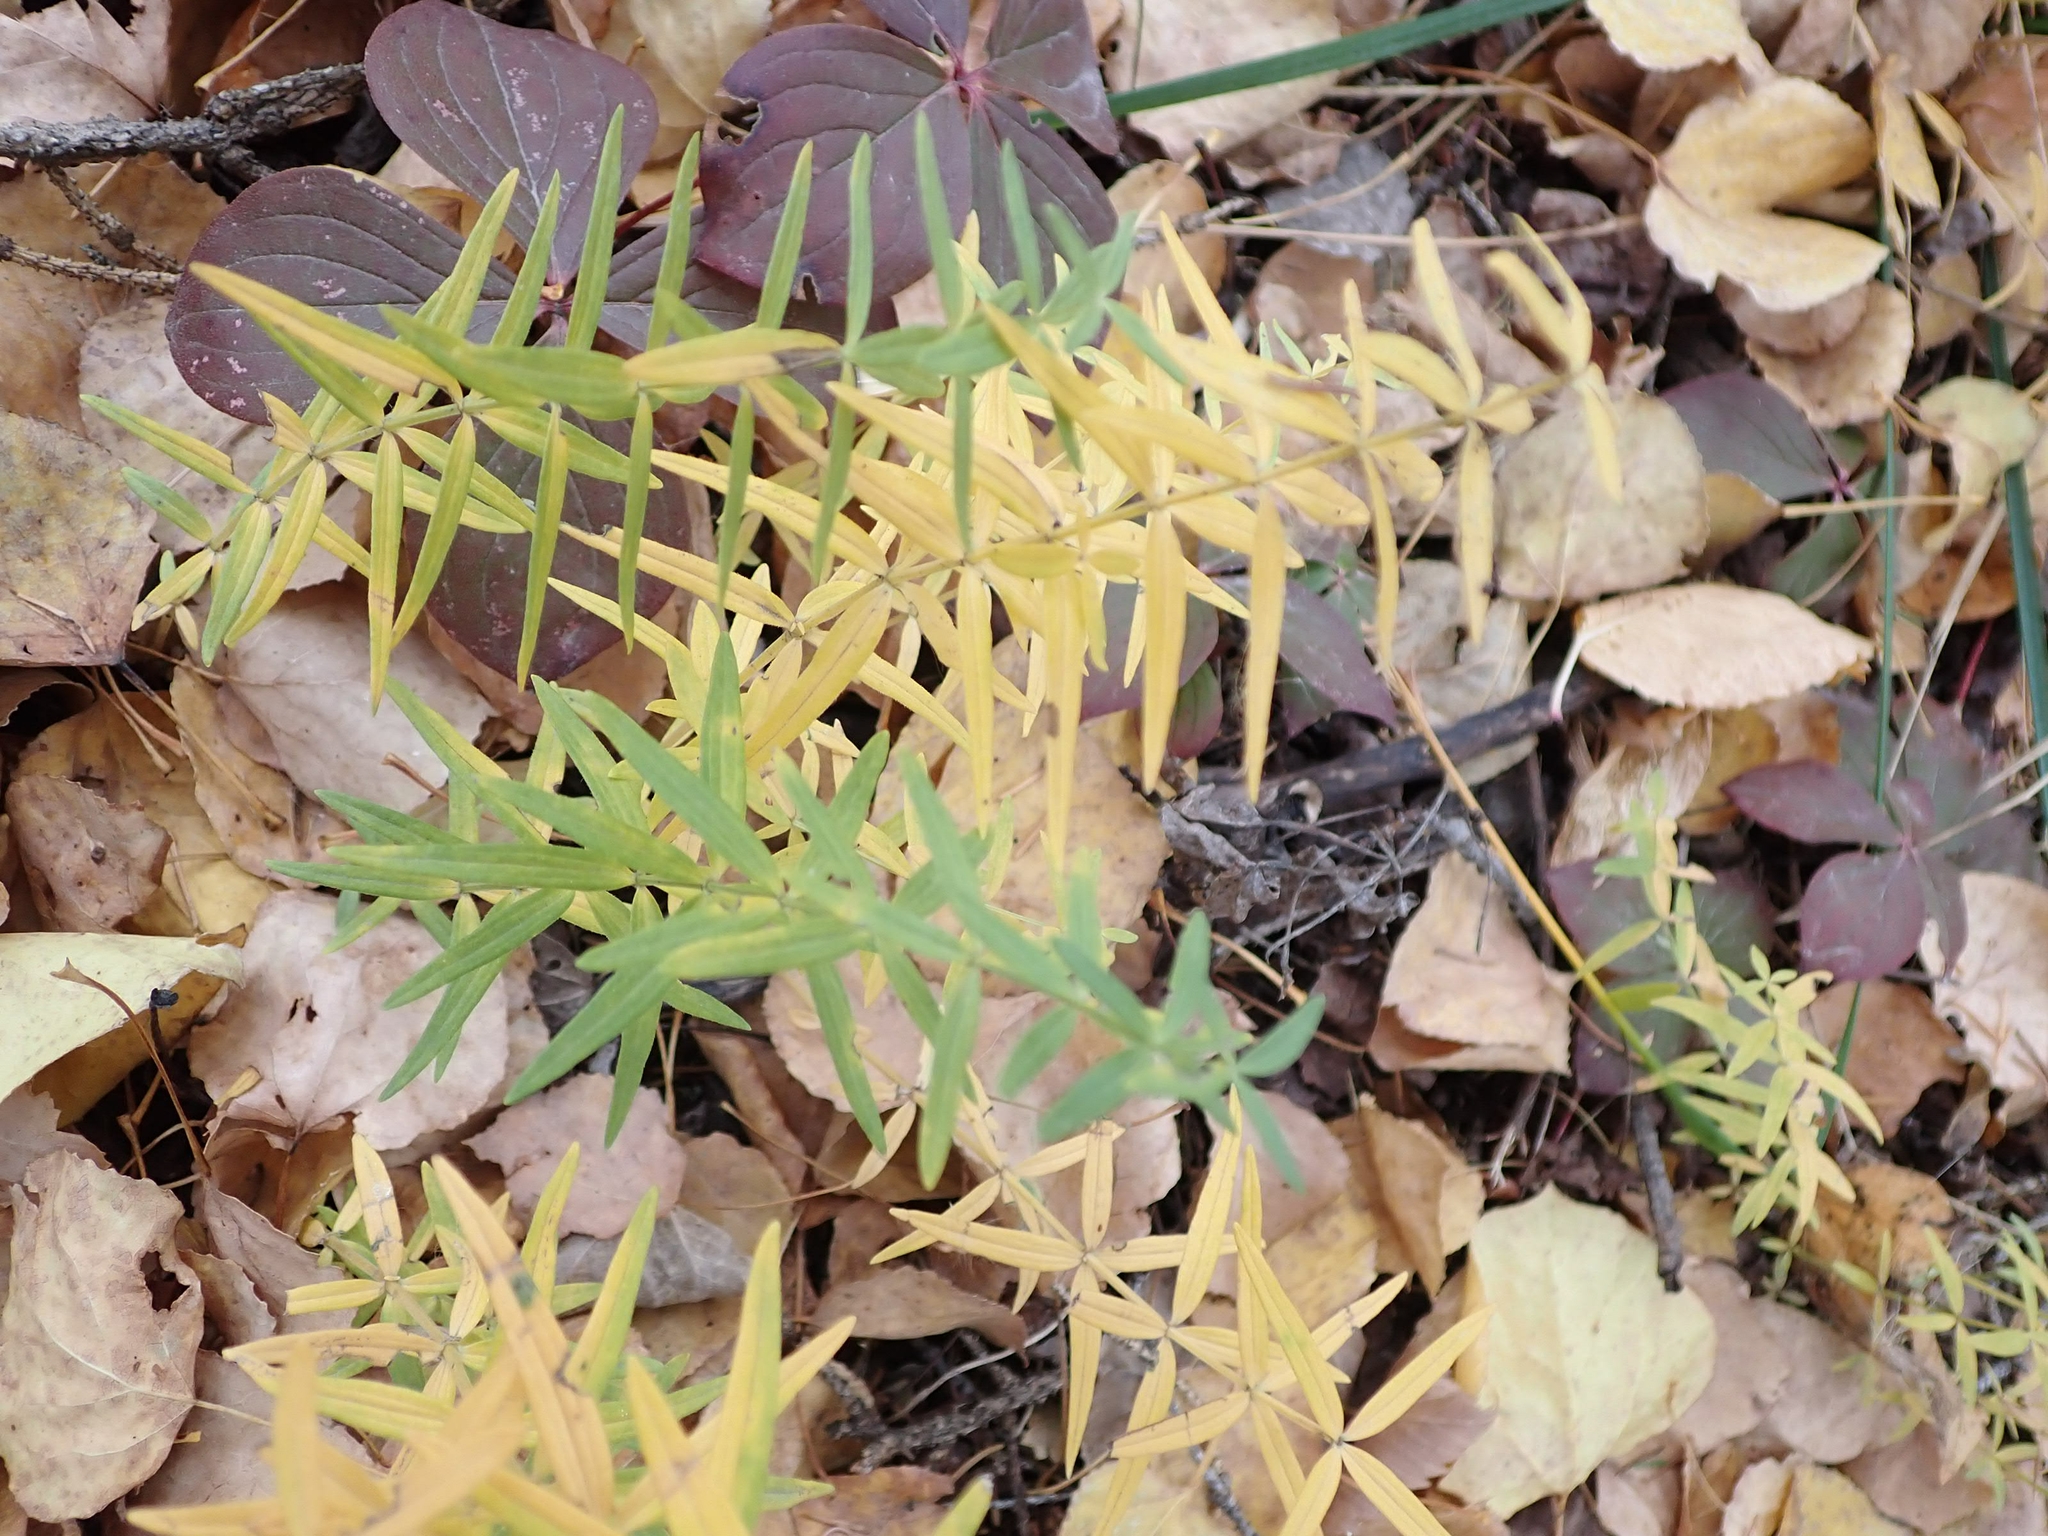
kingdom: Plantae
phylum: Tracheophyta
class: Magnoliopsida
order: Gentianales
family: Rubiaceae
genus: Galium
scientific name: Galium boreale
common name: Northern bedstraw
